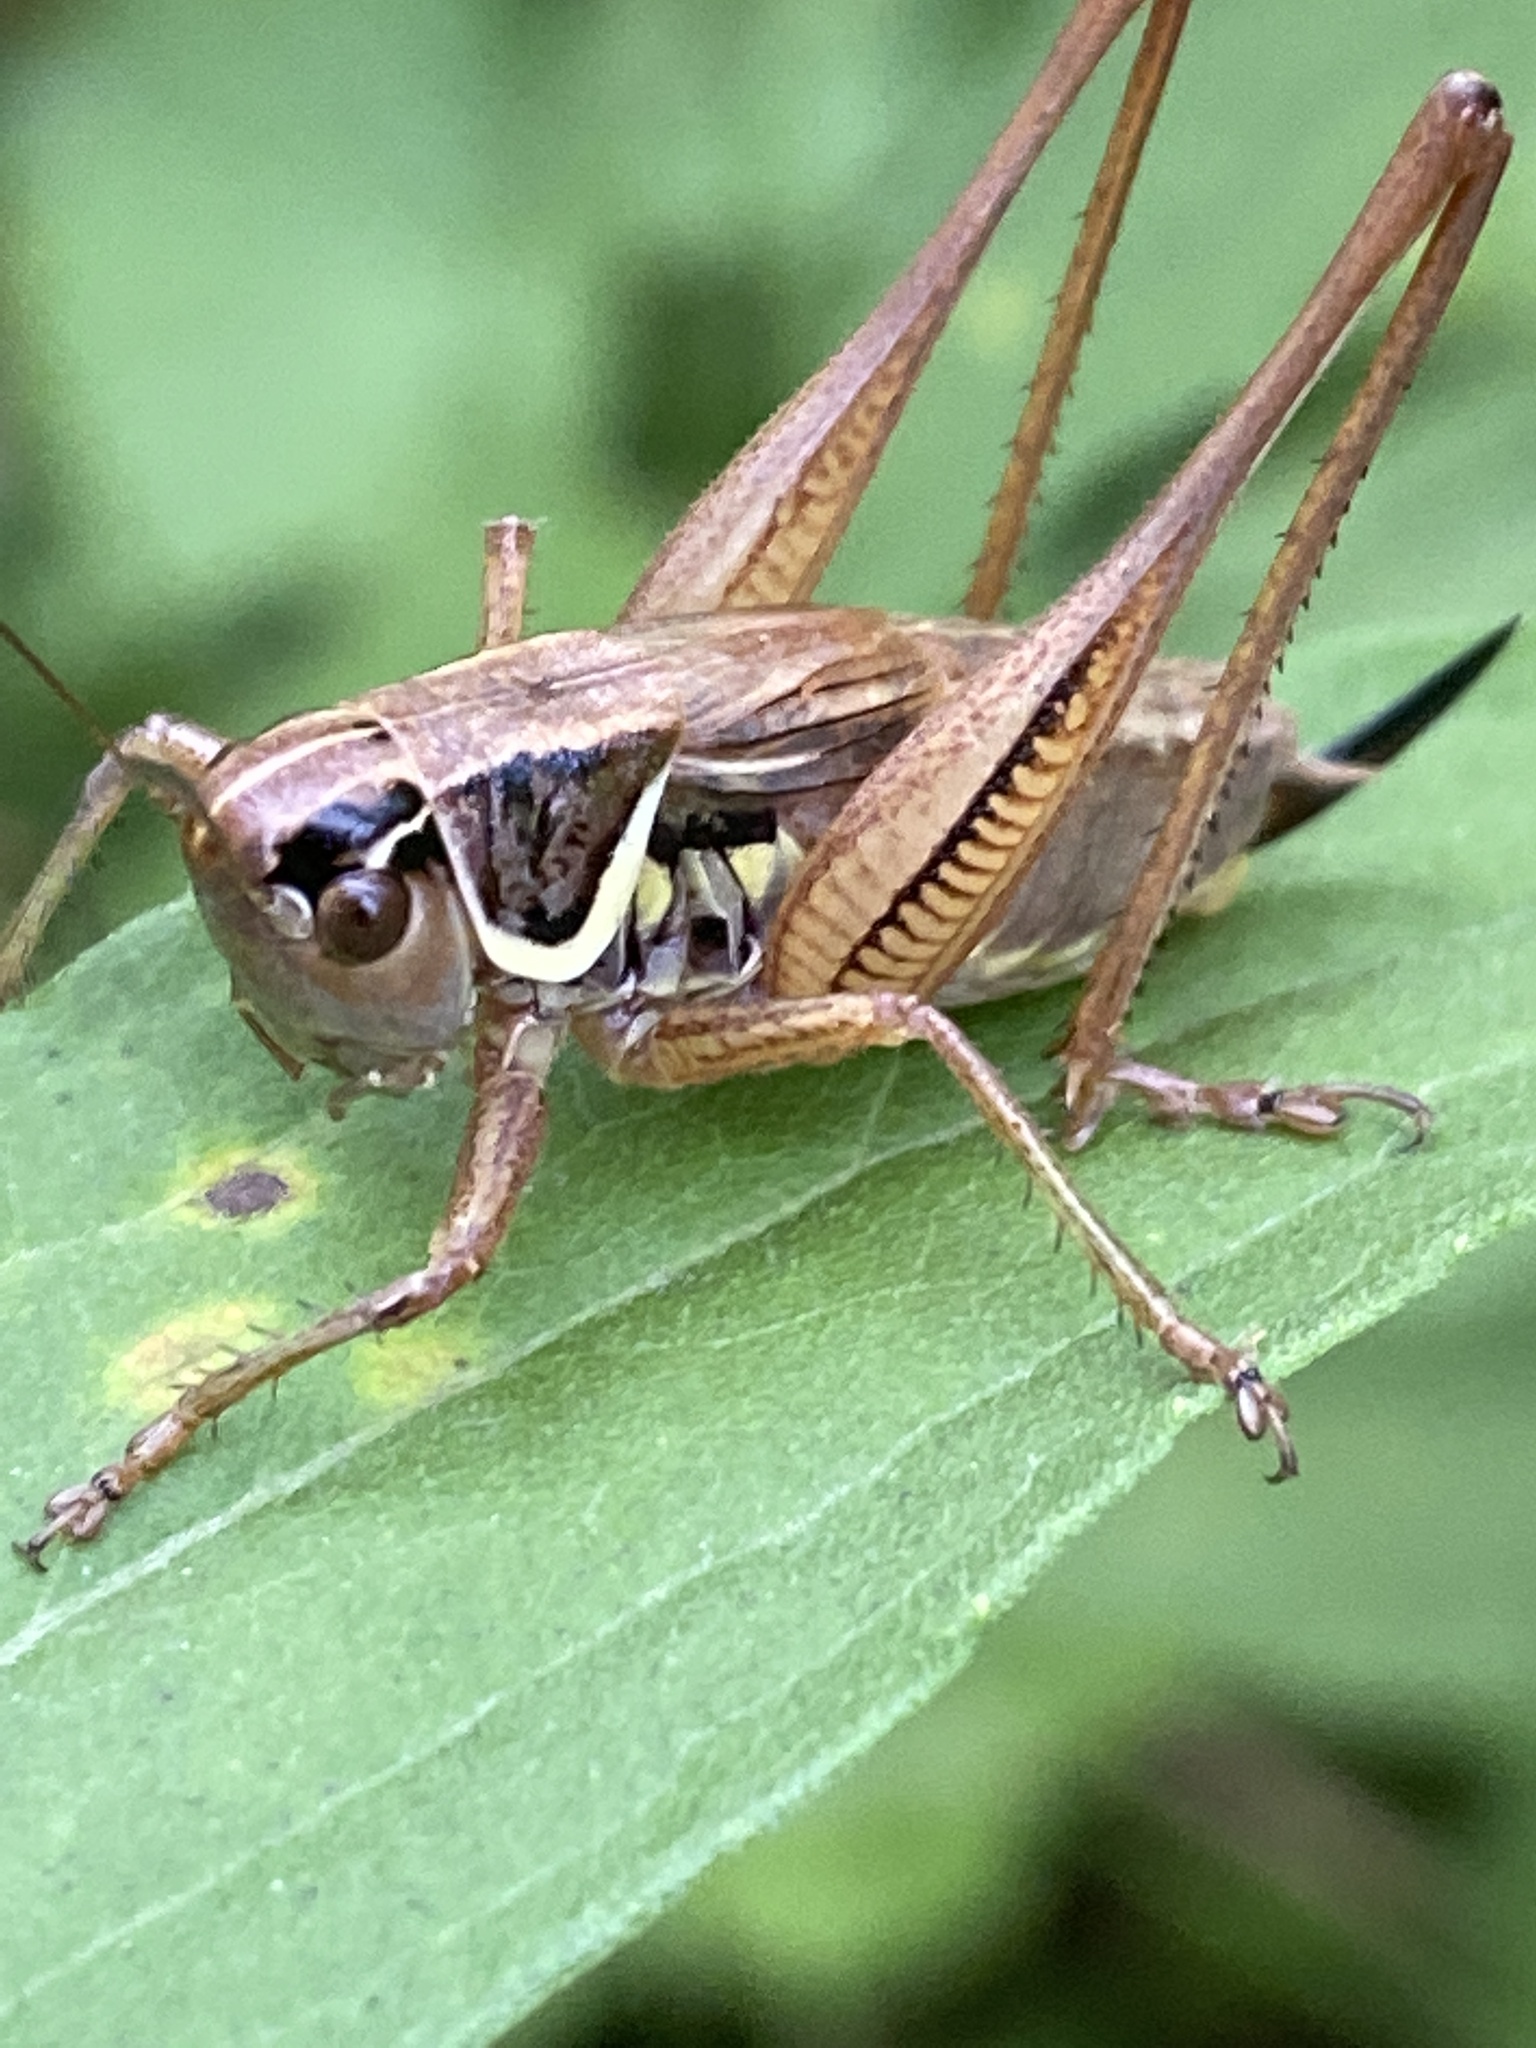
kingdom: Animalia
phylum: Arthropoda
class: Insecta
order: Orthoptera
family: Tettigoniidae
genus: Roeseliana
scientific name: Roeseliana roeselii
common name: Roesel's bush cricket
